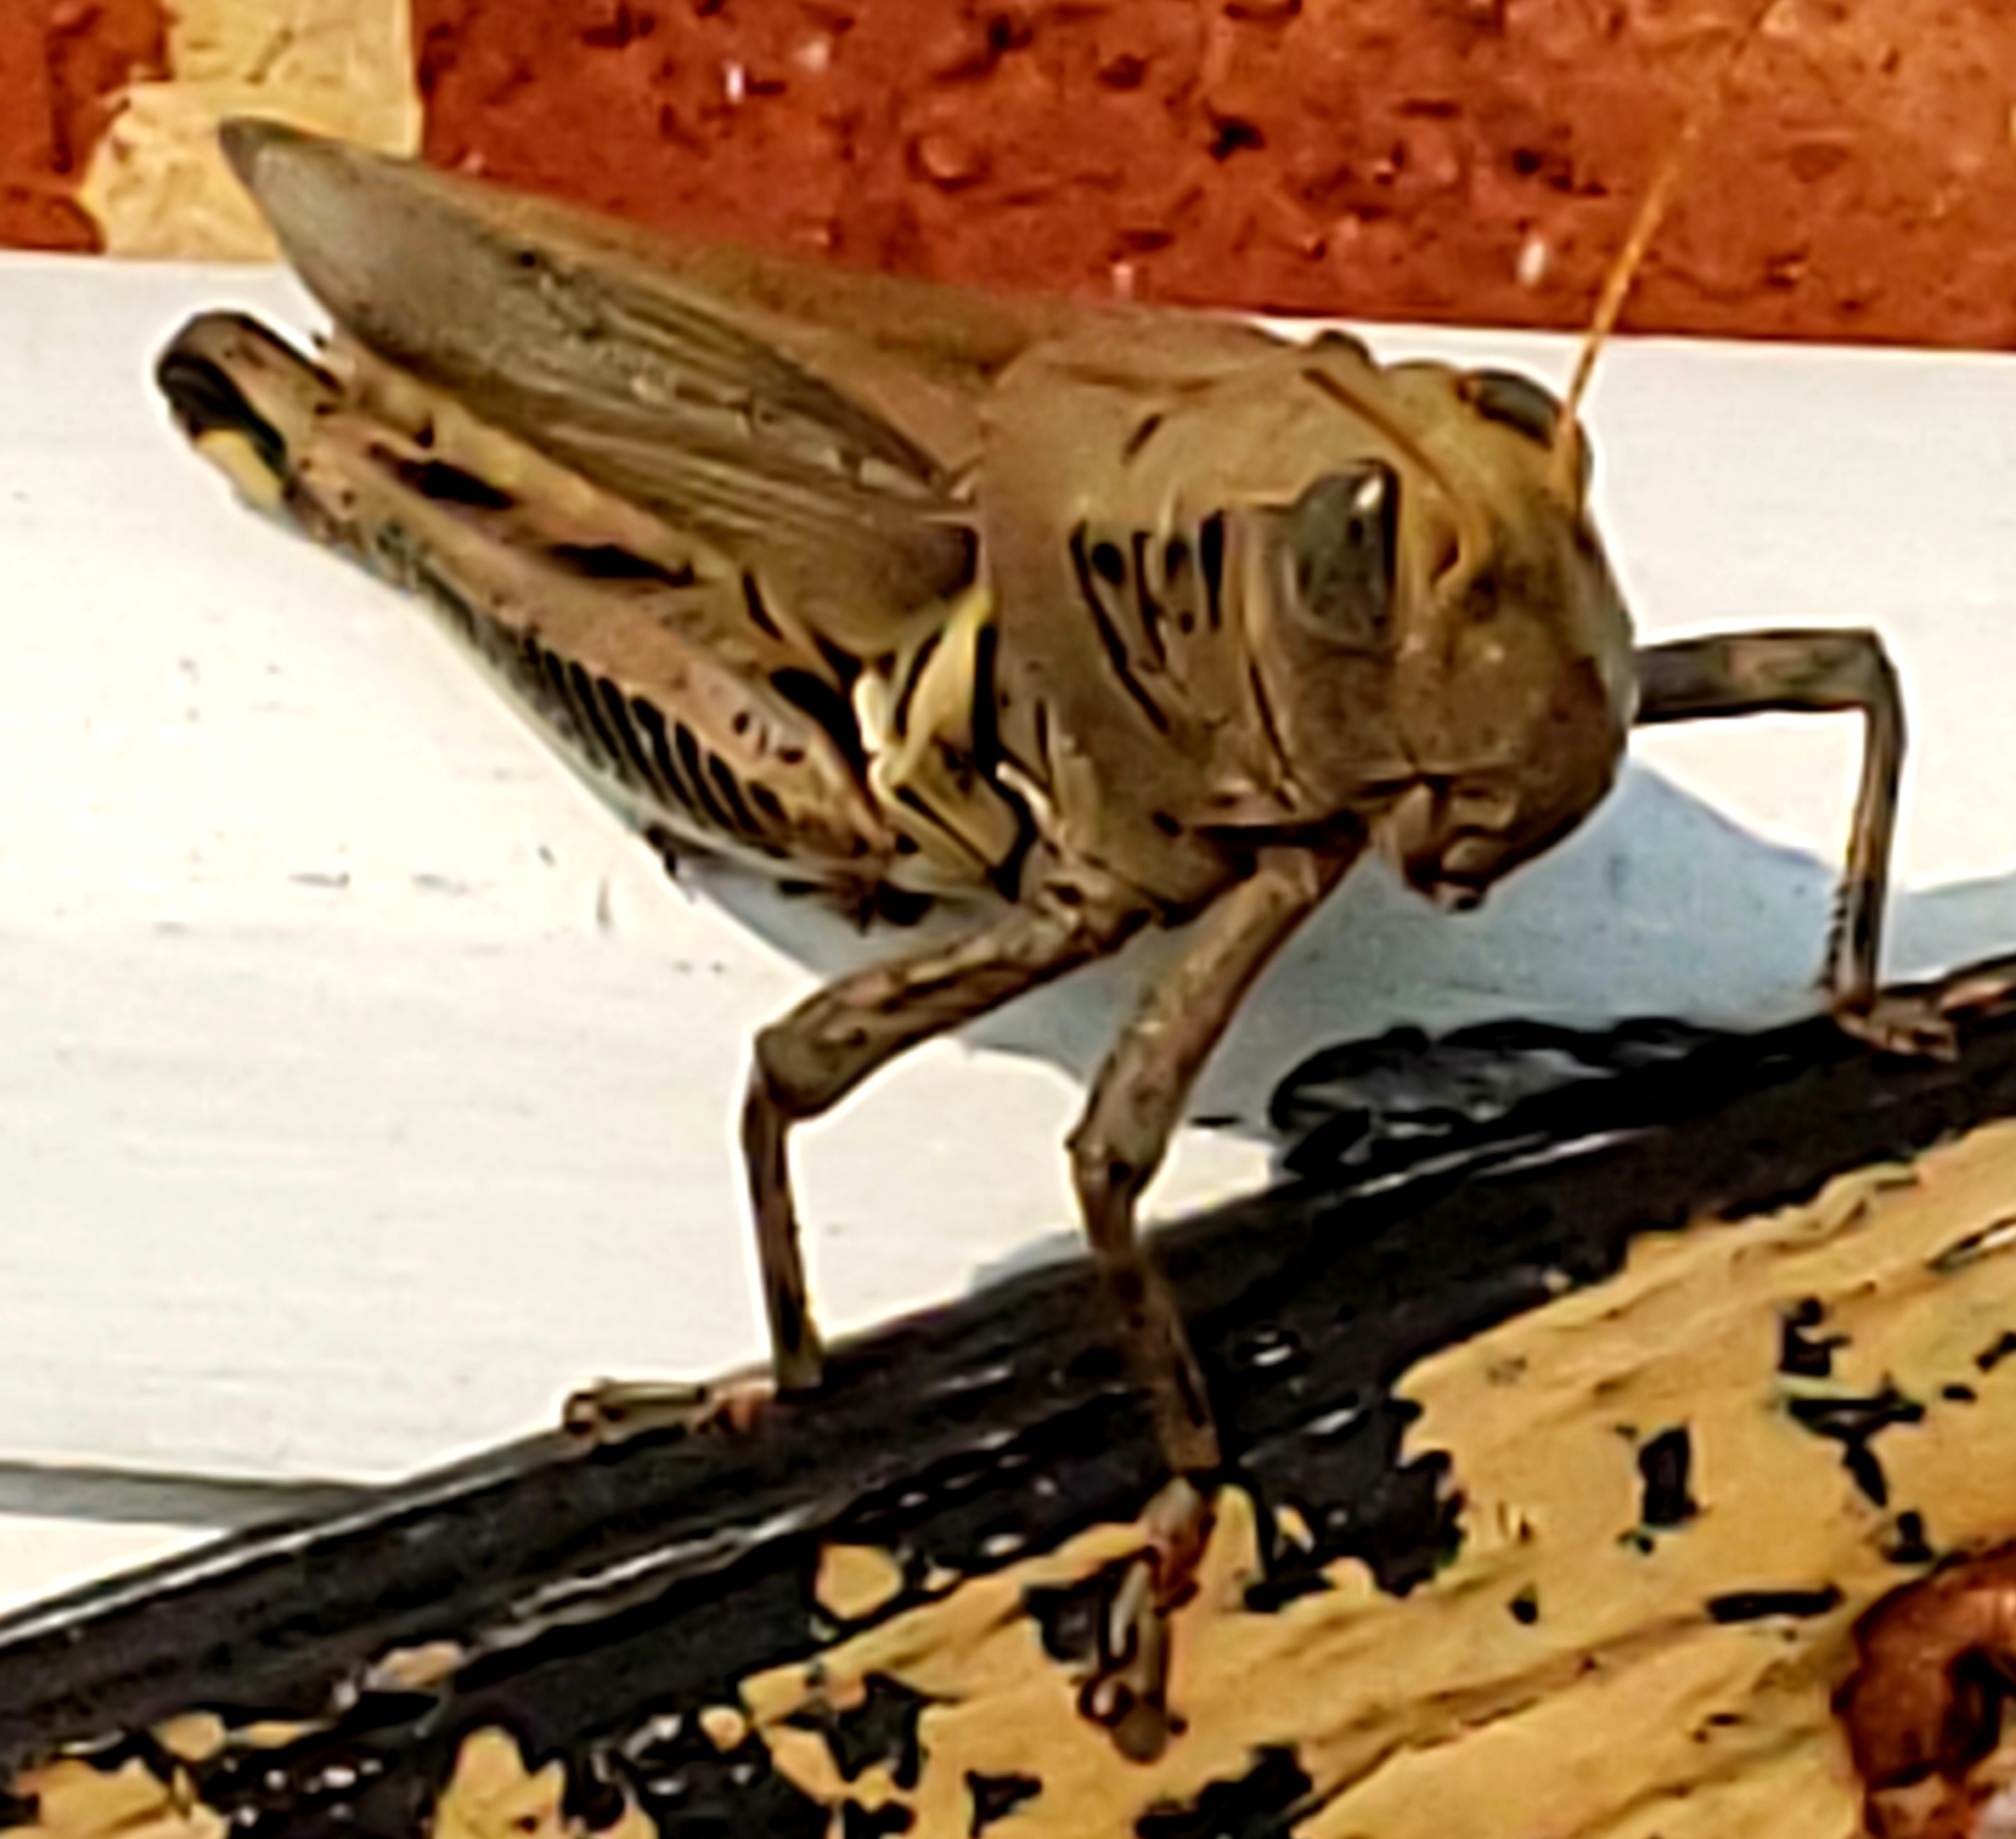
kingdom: Animalia
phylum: Arthropoda
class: Insecta
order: Orthoptera
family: Acrididae
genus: Melanoplus
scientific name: Melanoplus differentialis
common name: Differential grasshopper
